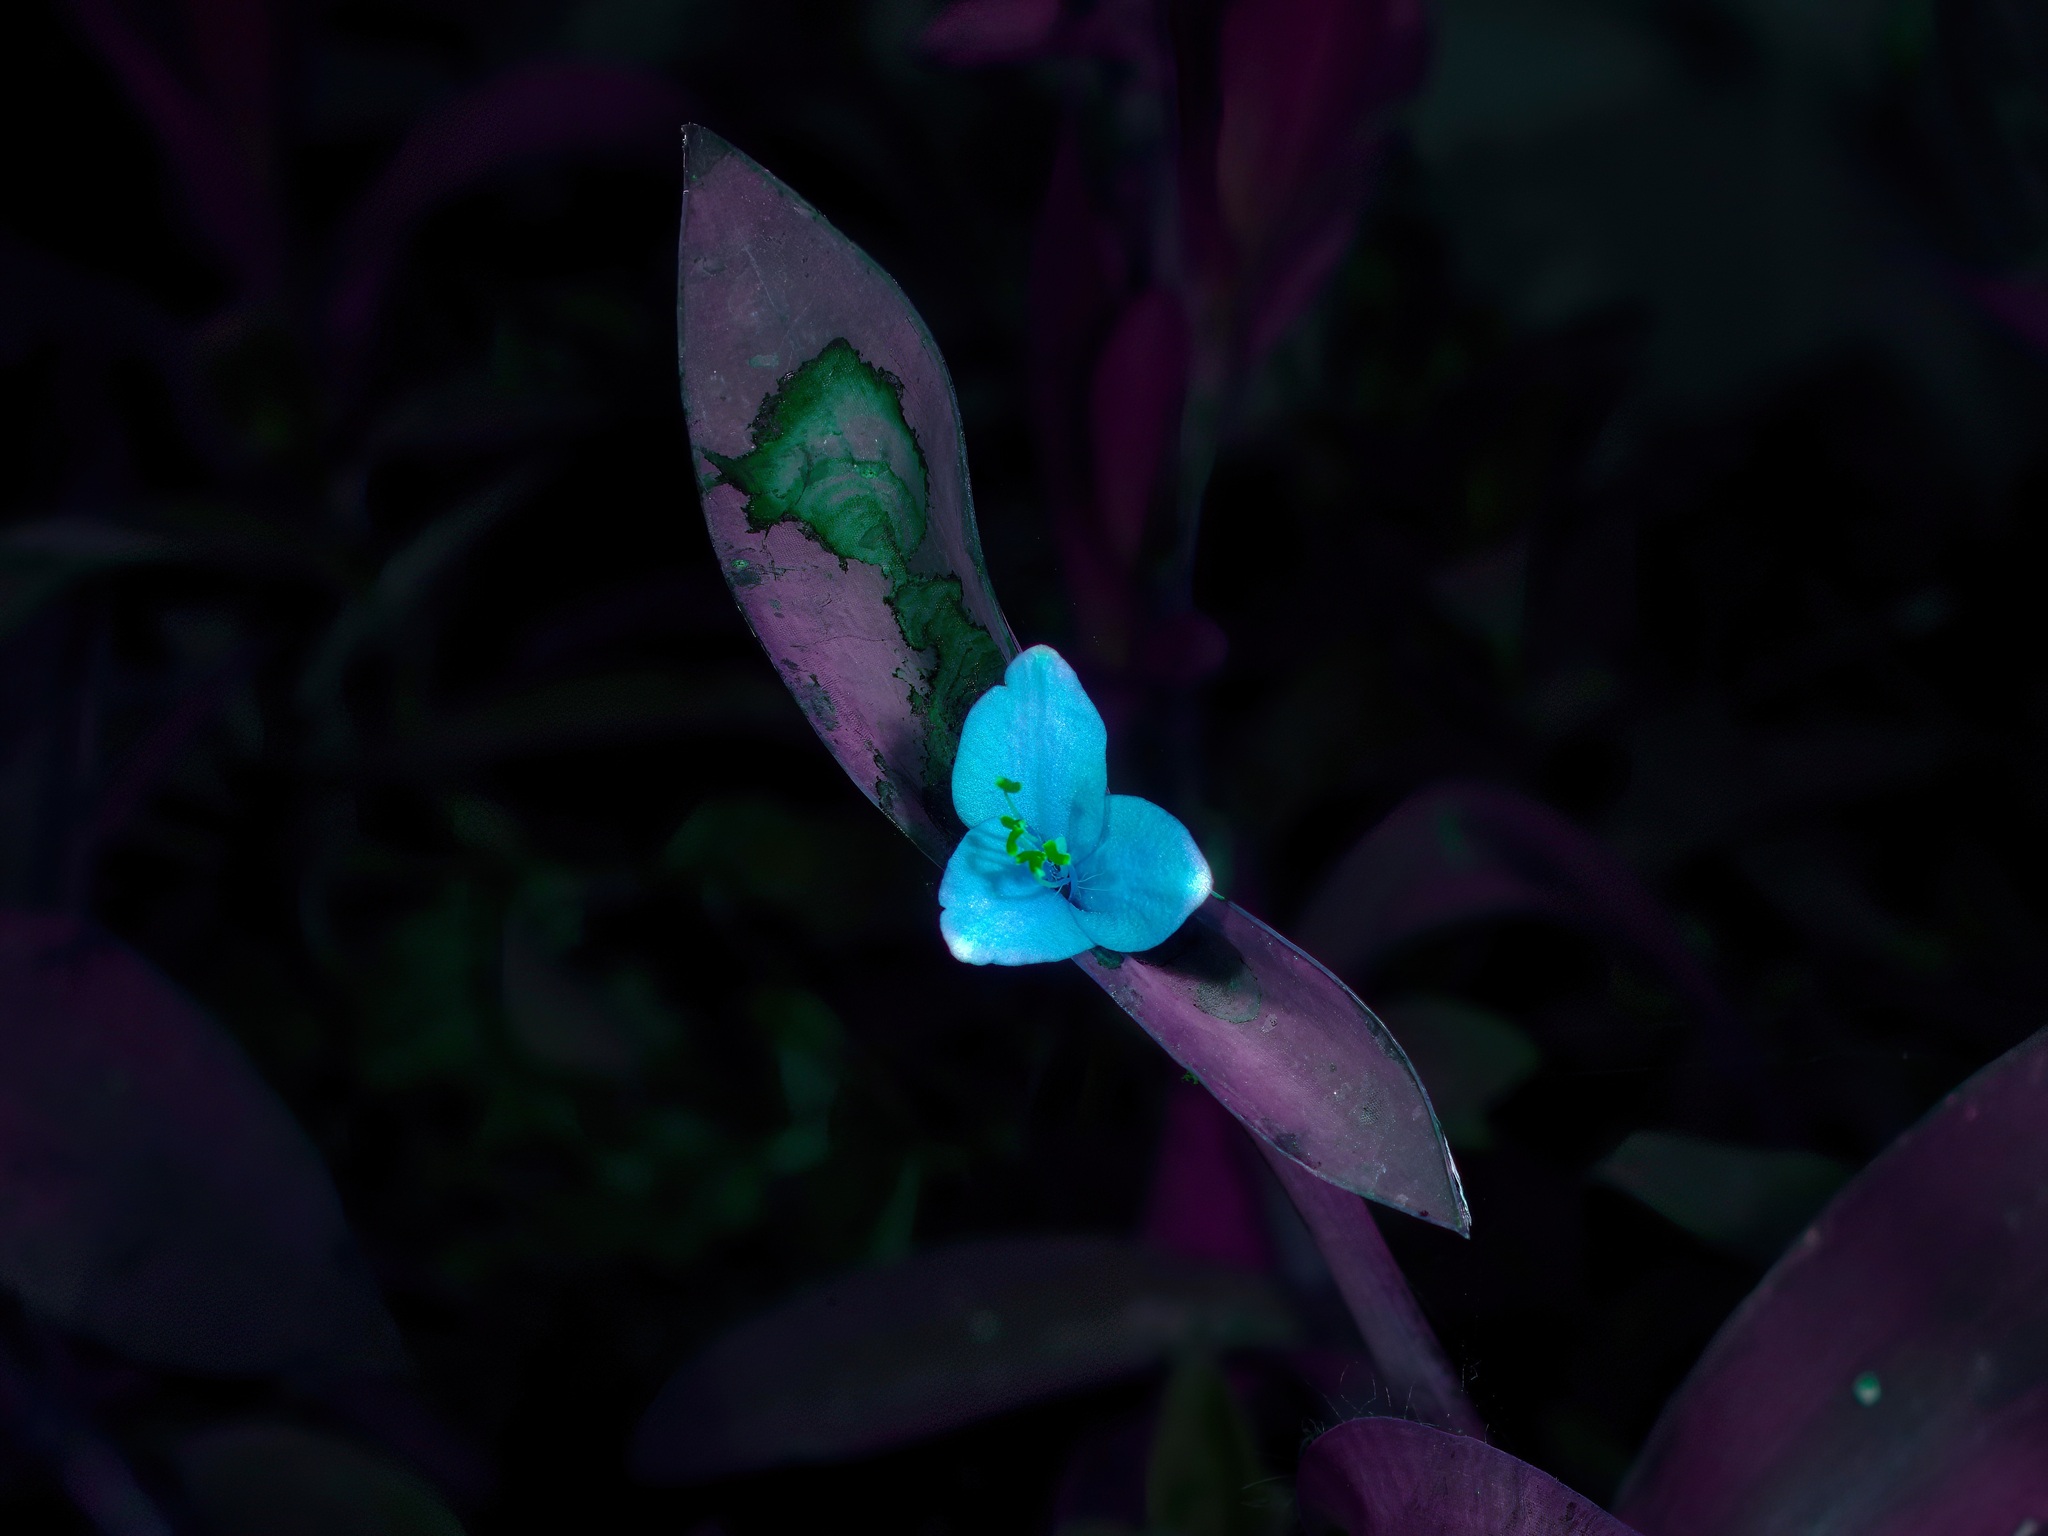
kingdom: Plantae
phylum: Tracheophyta
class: Liliopsida
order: Commelinales
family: Commelinaceae
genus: Tradescantia
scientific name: Tradescantia pallida
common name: Purpleheart
